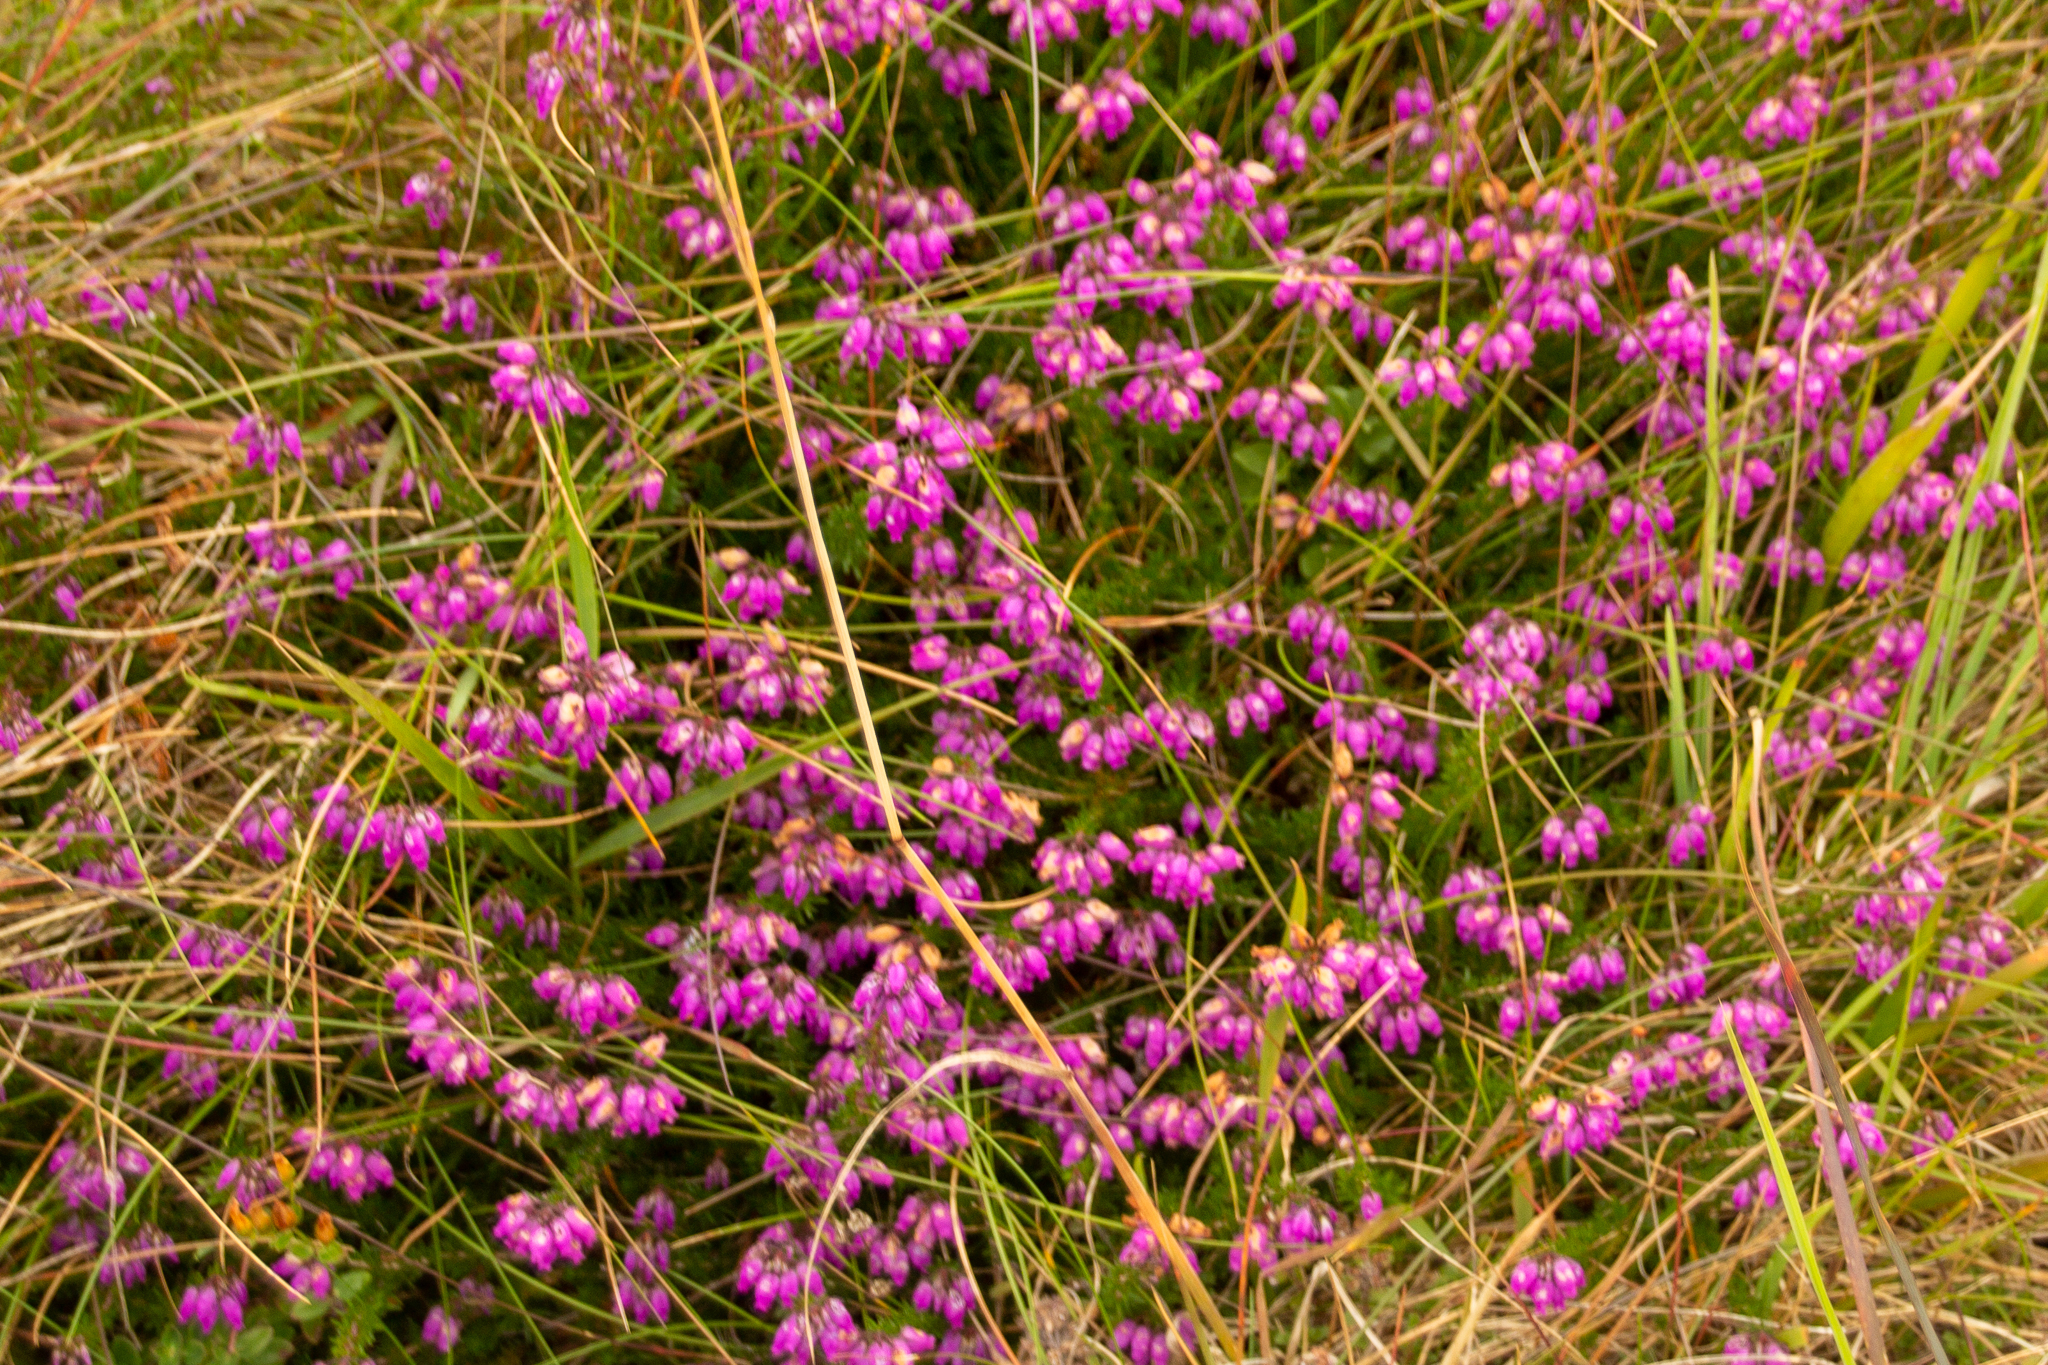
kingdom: Plantae
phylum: Tracheophyta
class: Magnoliopsida
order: Ericales
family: Ericaceae
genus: Erica
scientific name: Erica cinerea
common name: Bell heather
